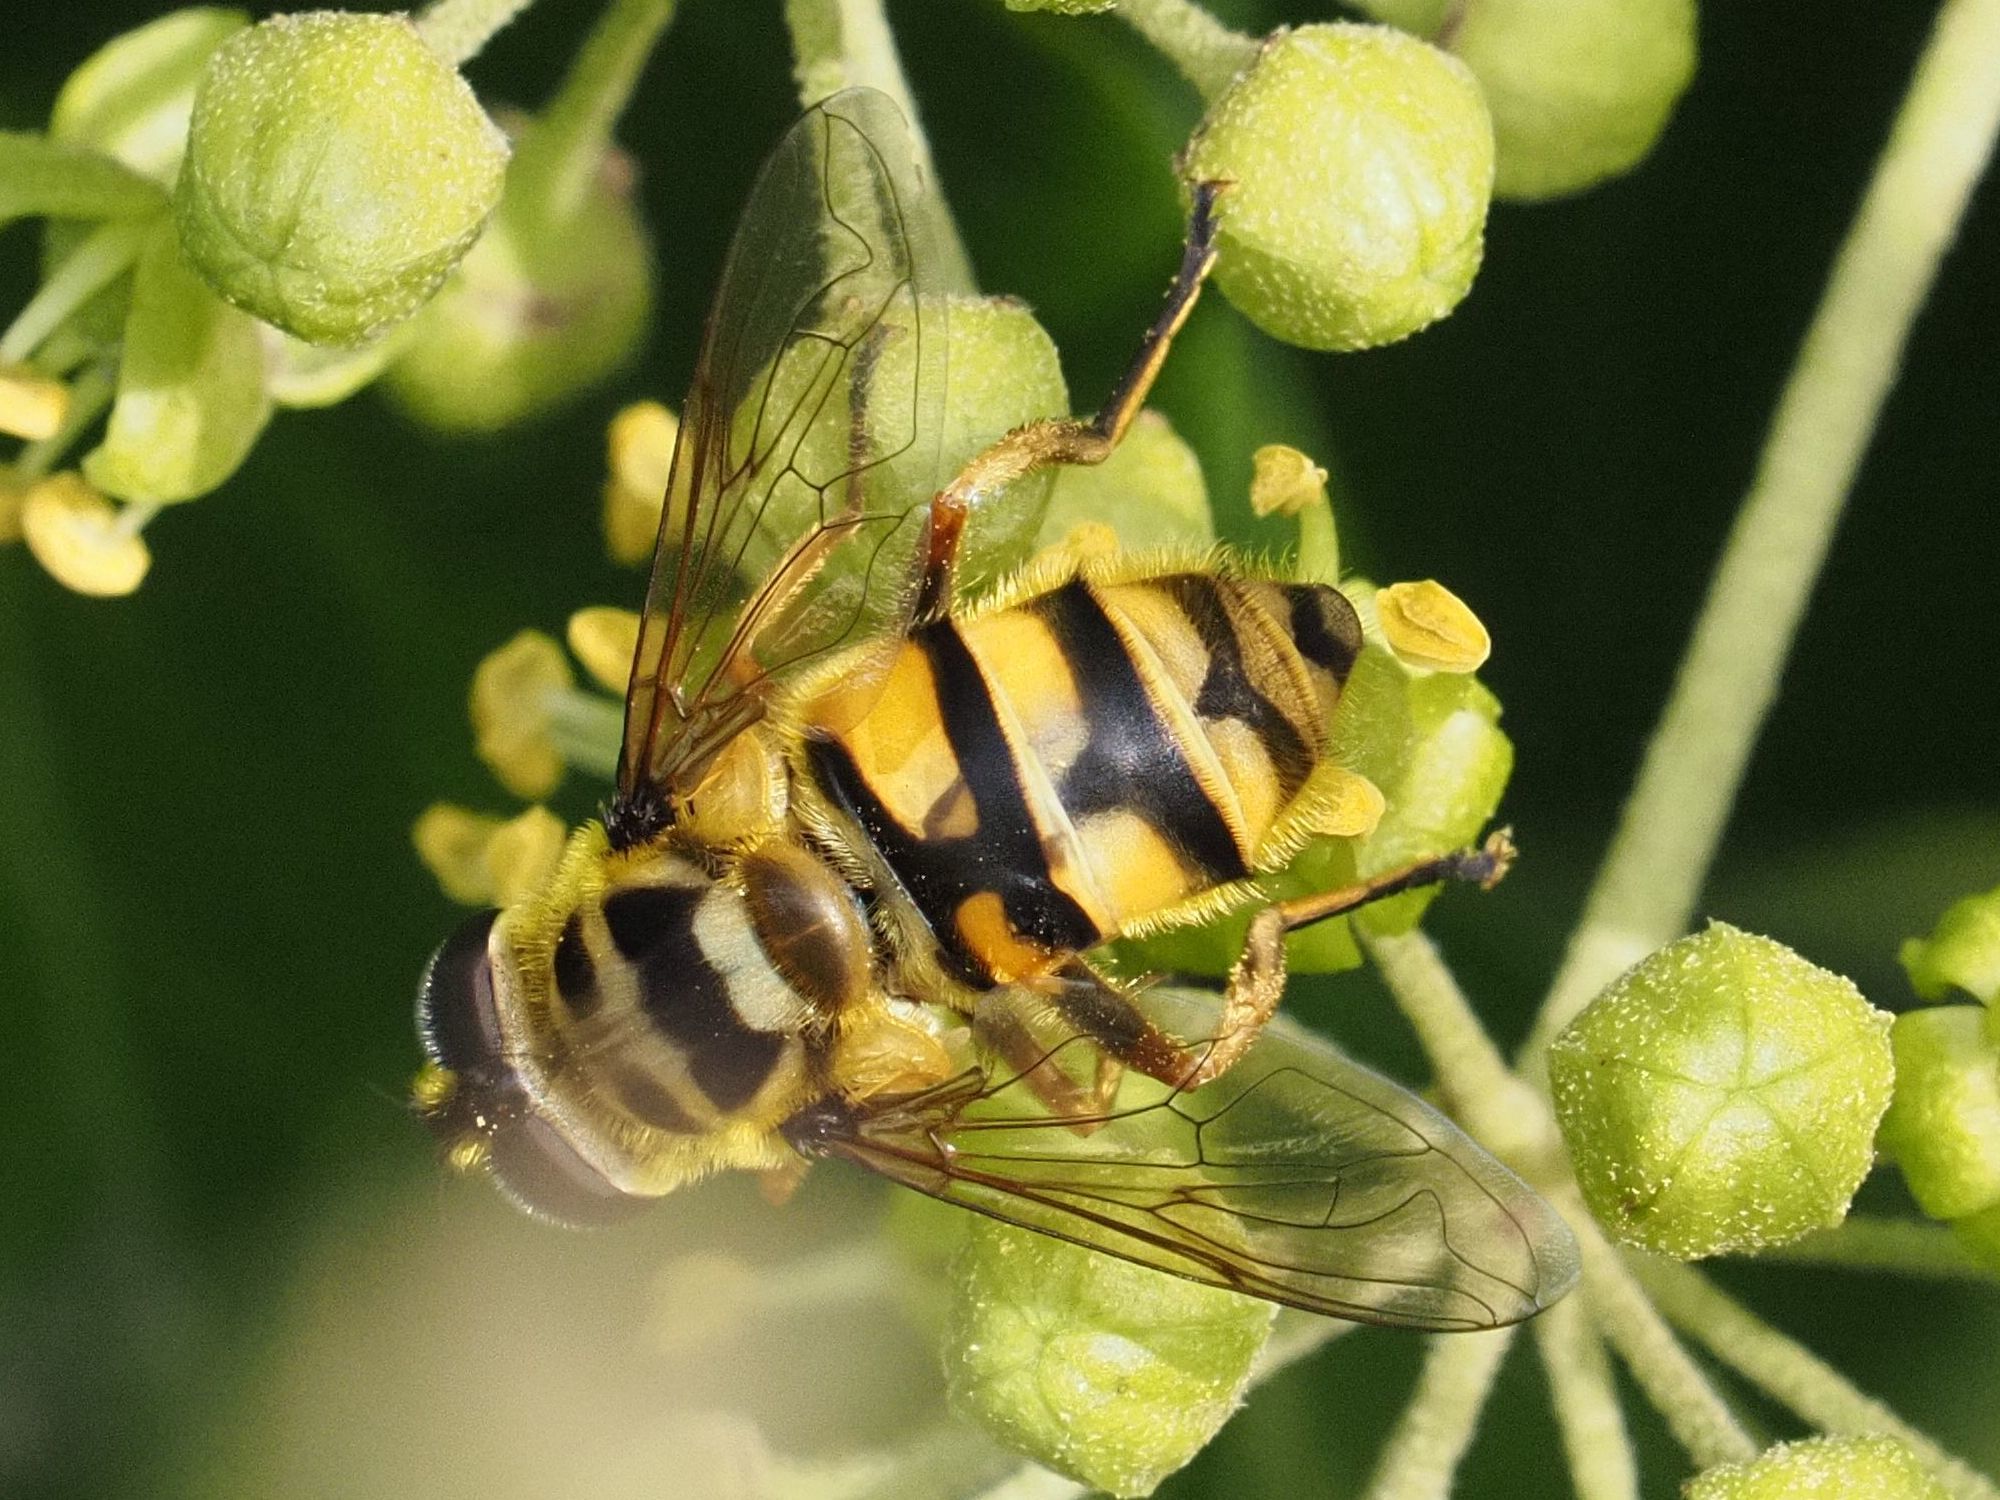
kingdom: Animalia
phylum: Arthropoda
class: Insecta
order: Diptera
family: Syrphidae
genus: Myathropa
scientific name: Myathropa florea
